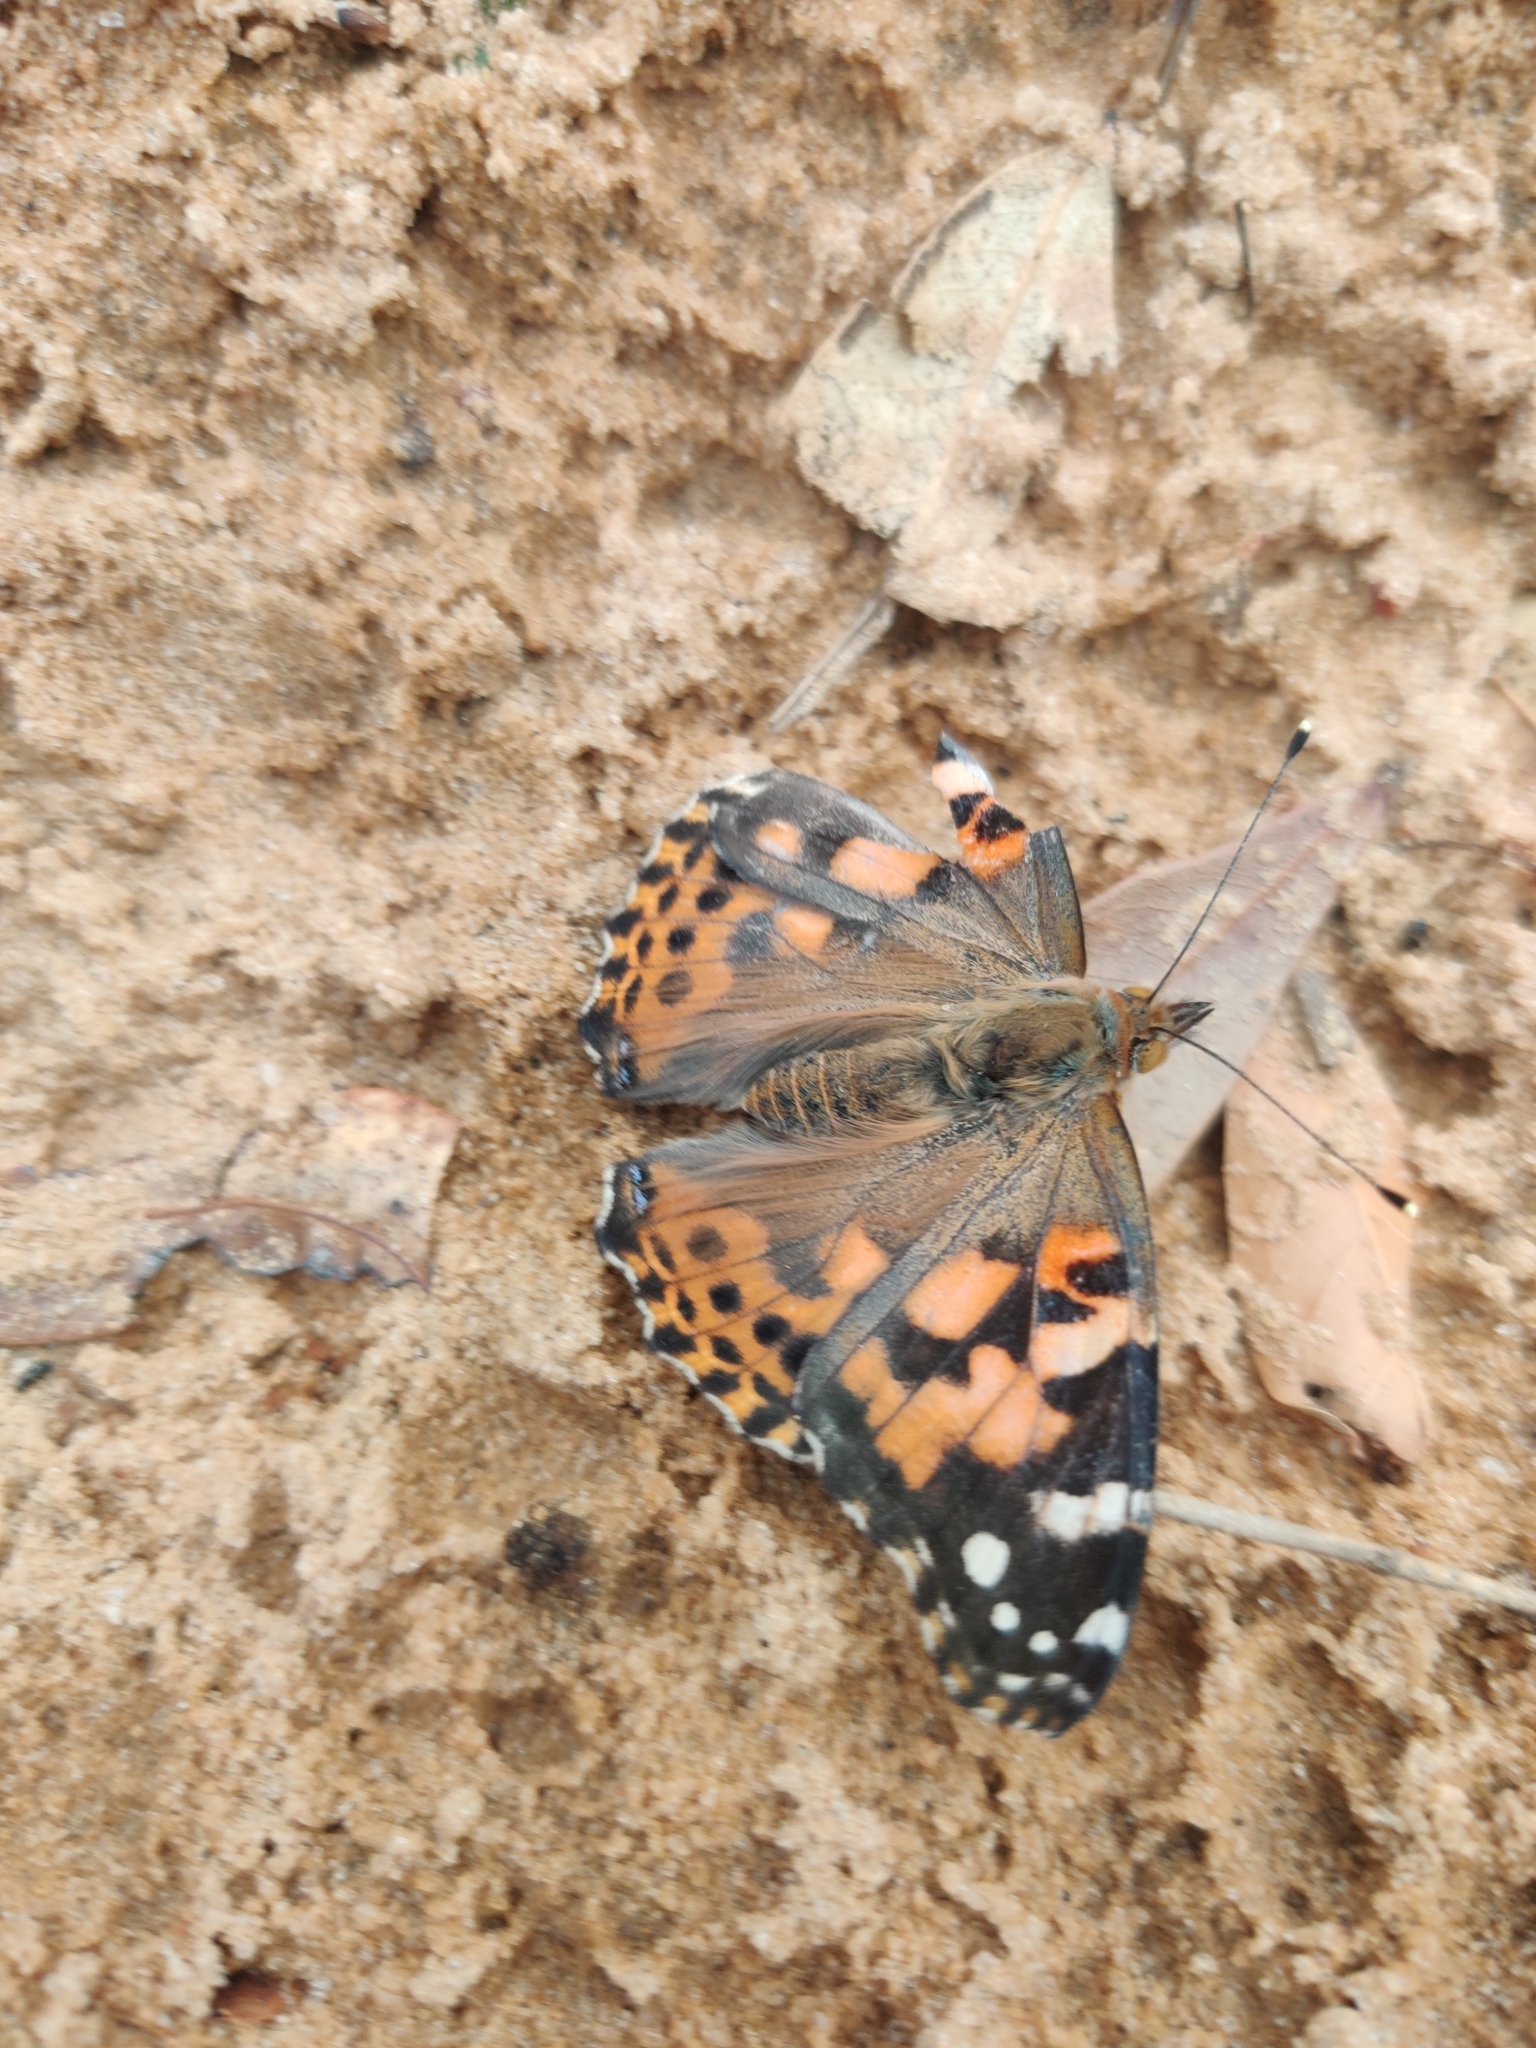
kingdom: Animalia
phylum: Arthropoda
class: Insecta
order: Lepidoptera
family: Nymphalidae
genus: Vanessa
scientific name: Vanessa cardui
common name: Painted lady
